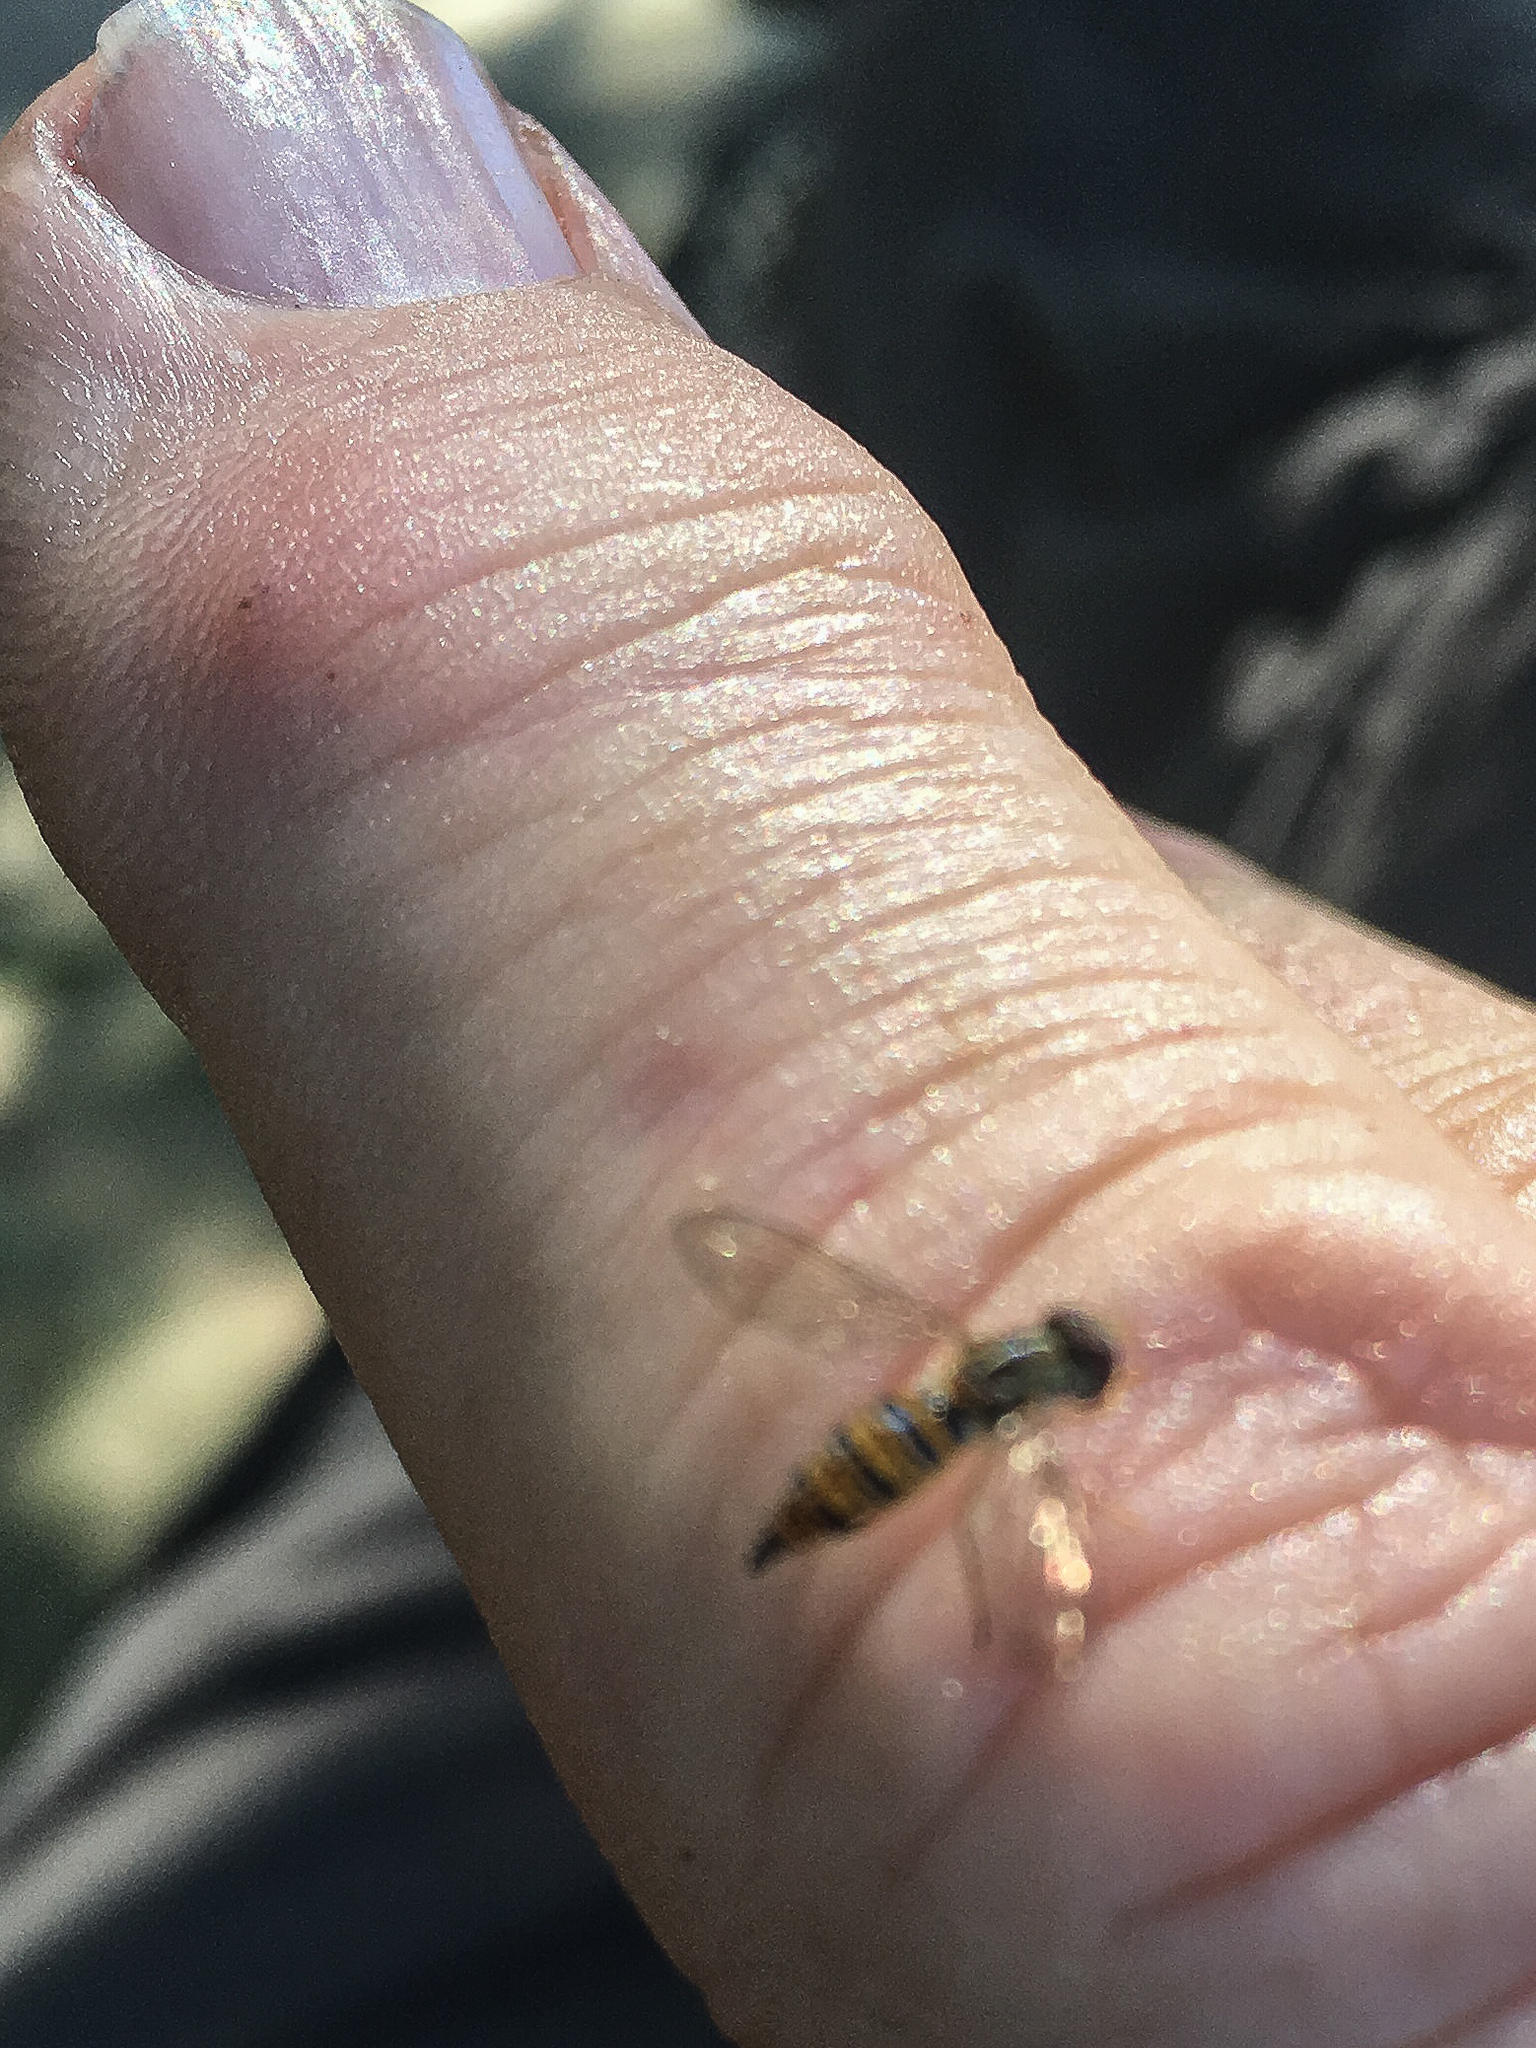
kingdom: Animalia
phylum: Arthropoda
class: Insecta
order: Diptera
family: Syrphidae
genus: Toxomerus
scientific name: Toxomerus politus
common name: Maize calligrapher
